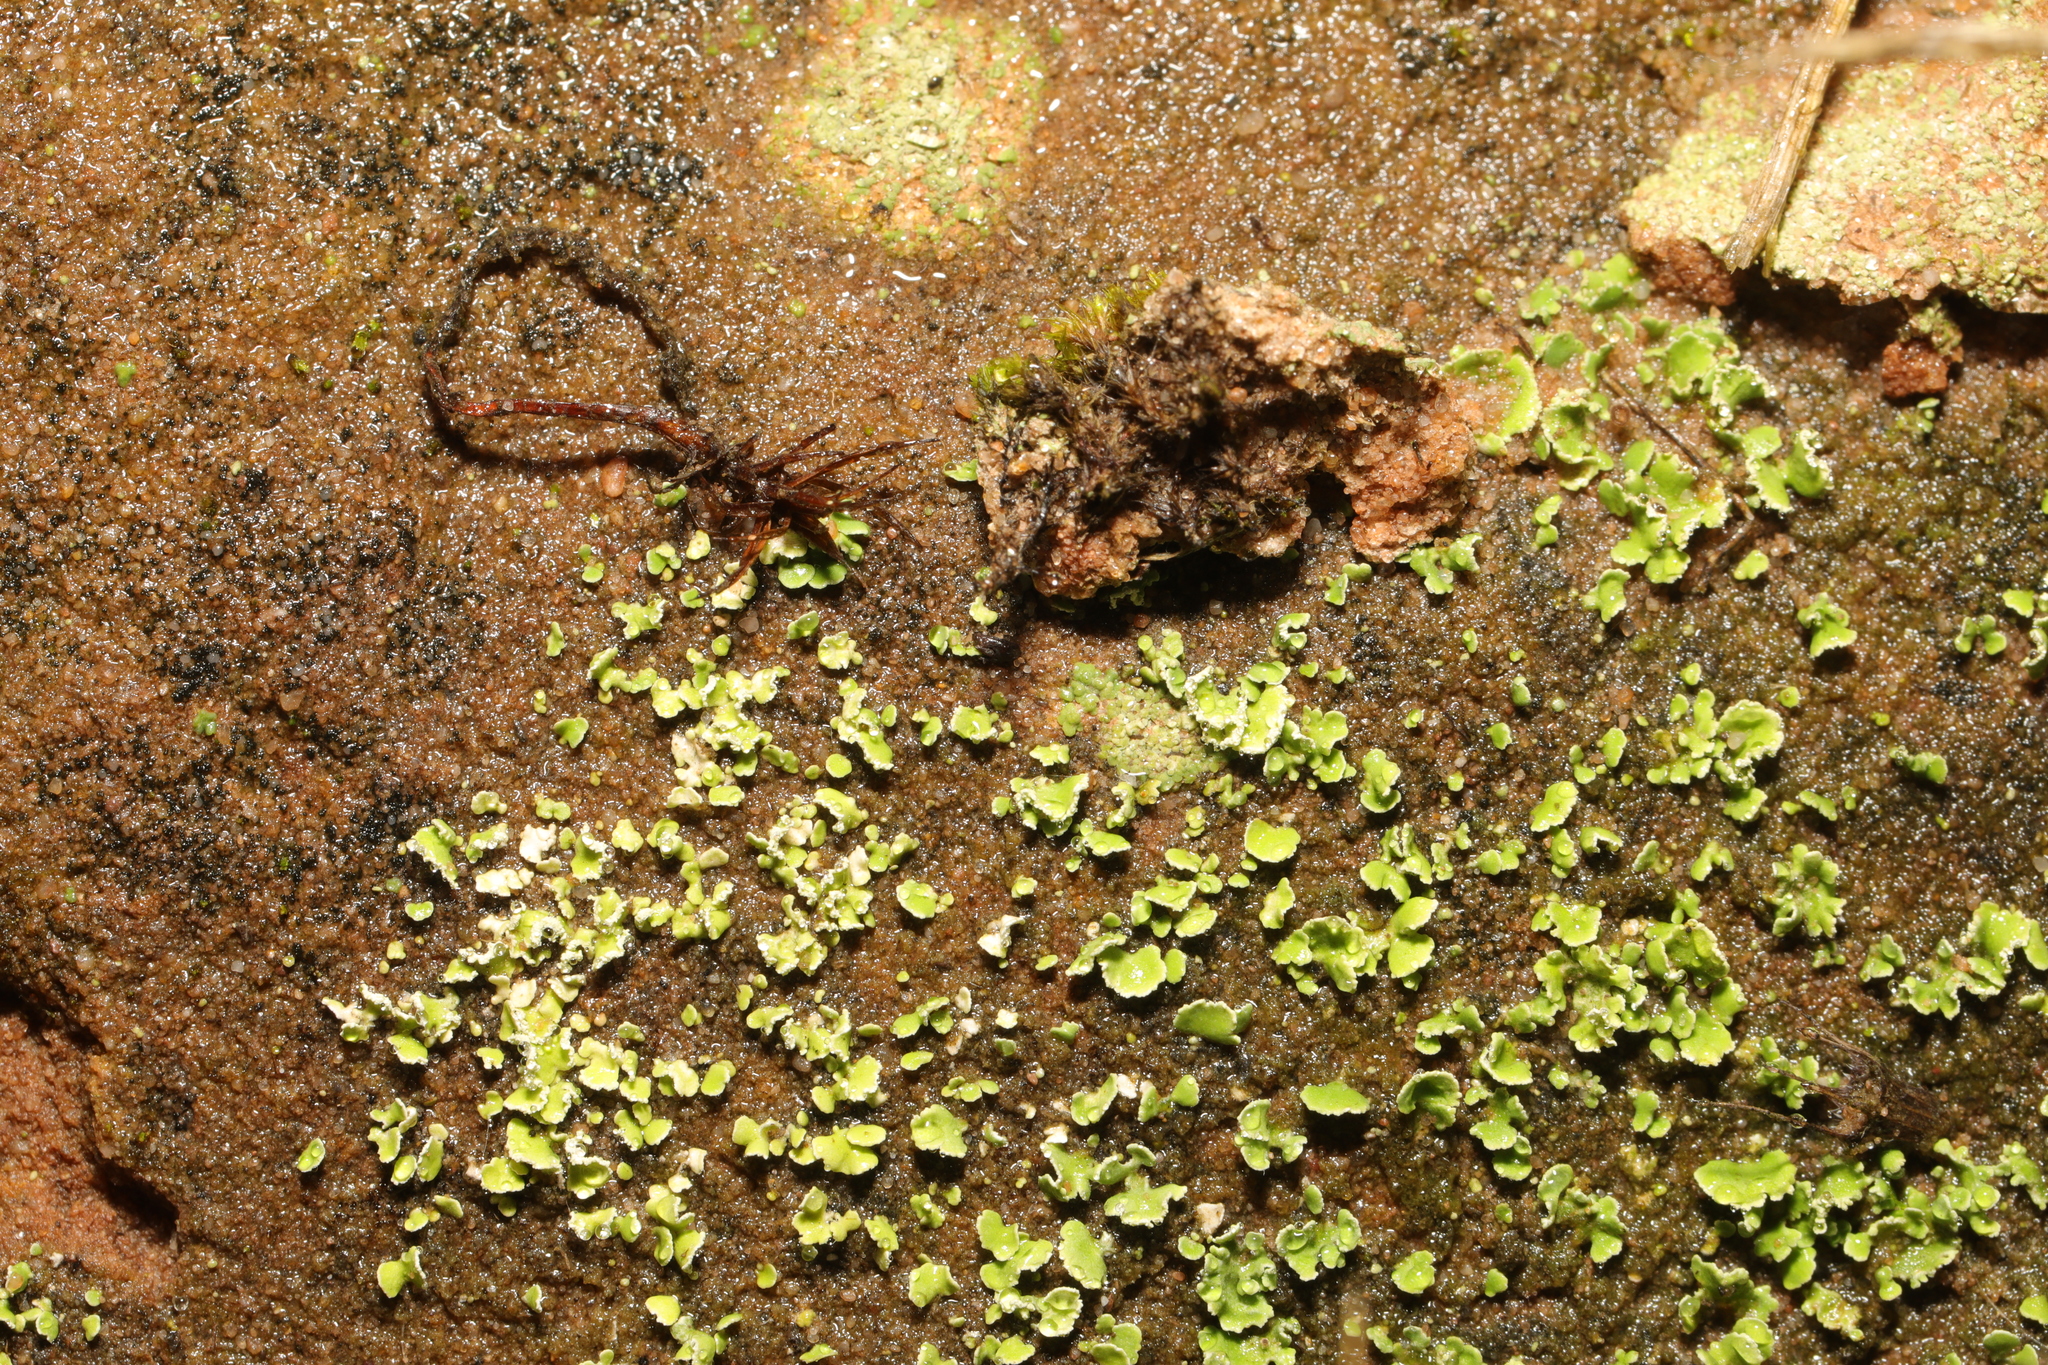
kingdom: Fungi
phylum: Ascomycota
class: Lecanoromycetes
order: Lecanorales
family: Cladoniaceae
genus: Cladonia
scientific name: Cladonia
